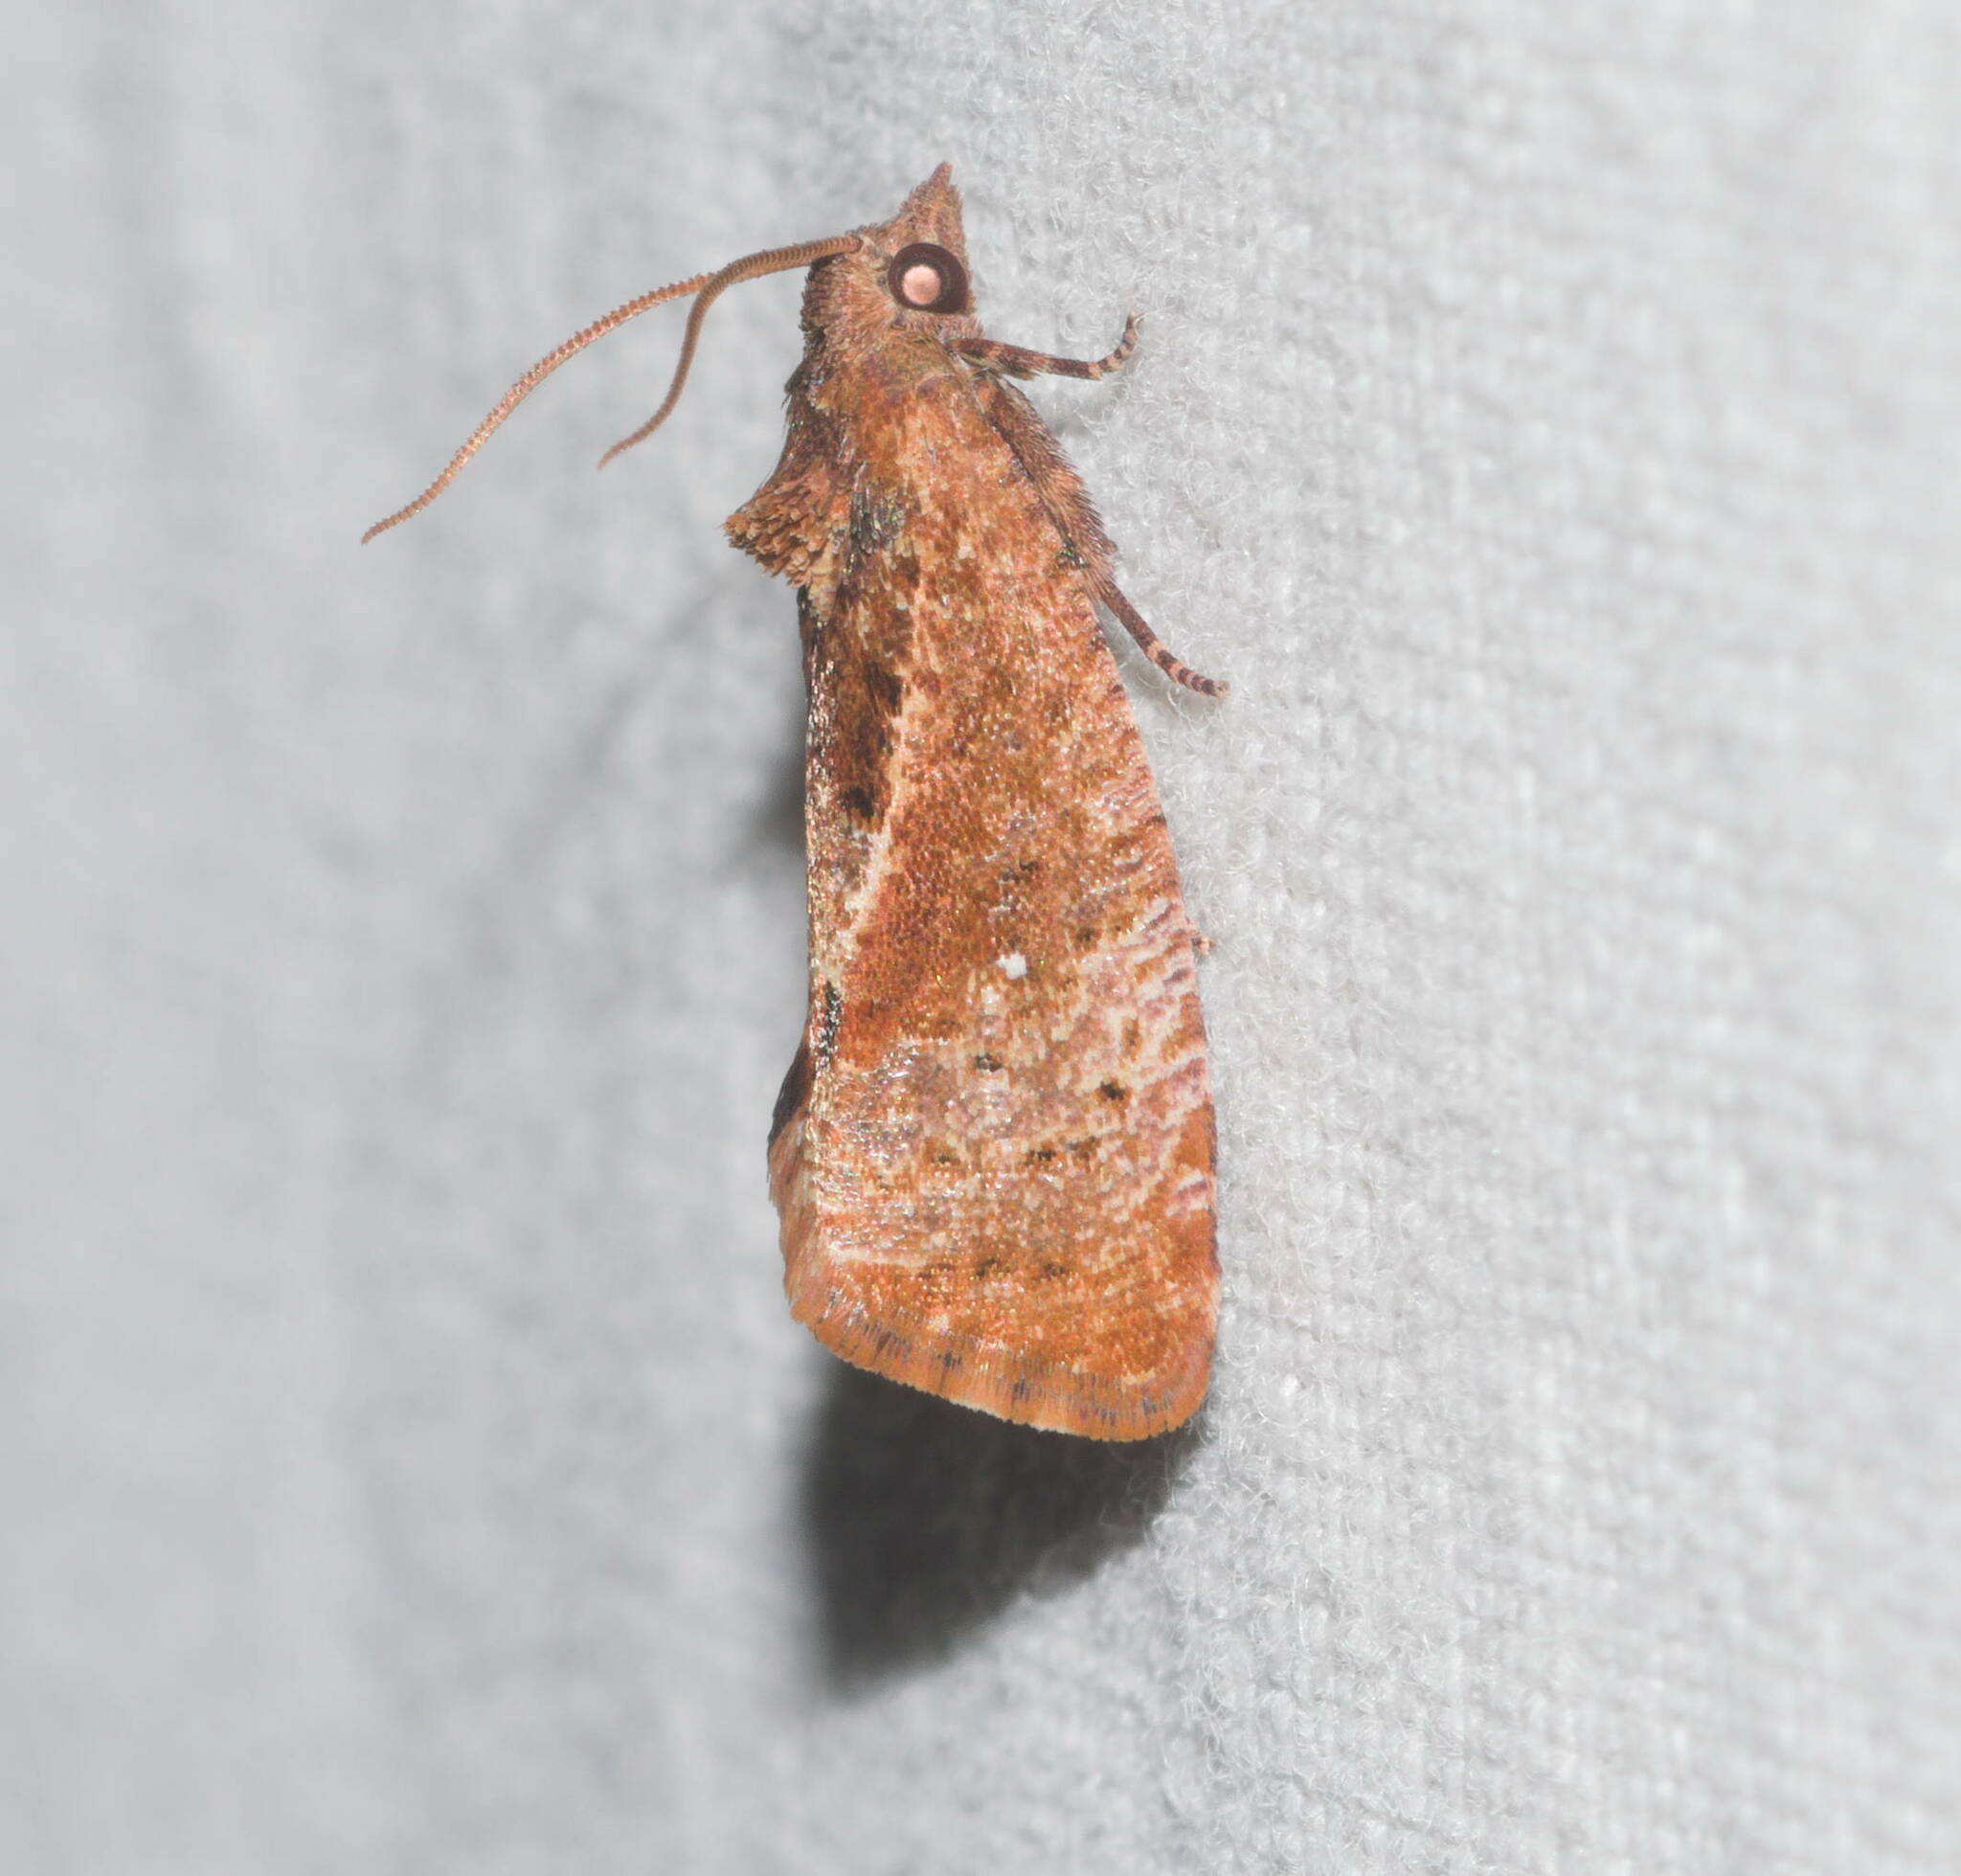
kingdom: Animalia
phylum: Arthropoda
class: Insecta
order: Lepidoptera
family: Tortricidae
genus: Cryptophlebia
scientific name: Cryptophlebia illepida
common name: Moth
